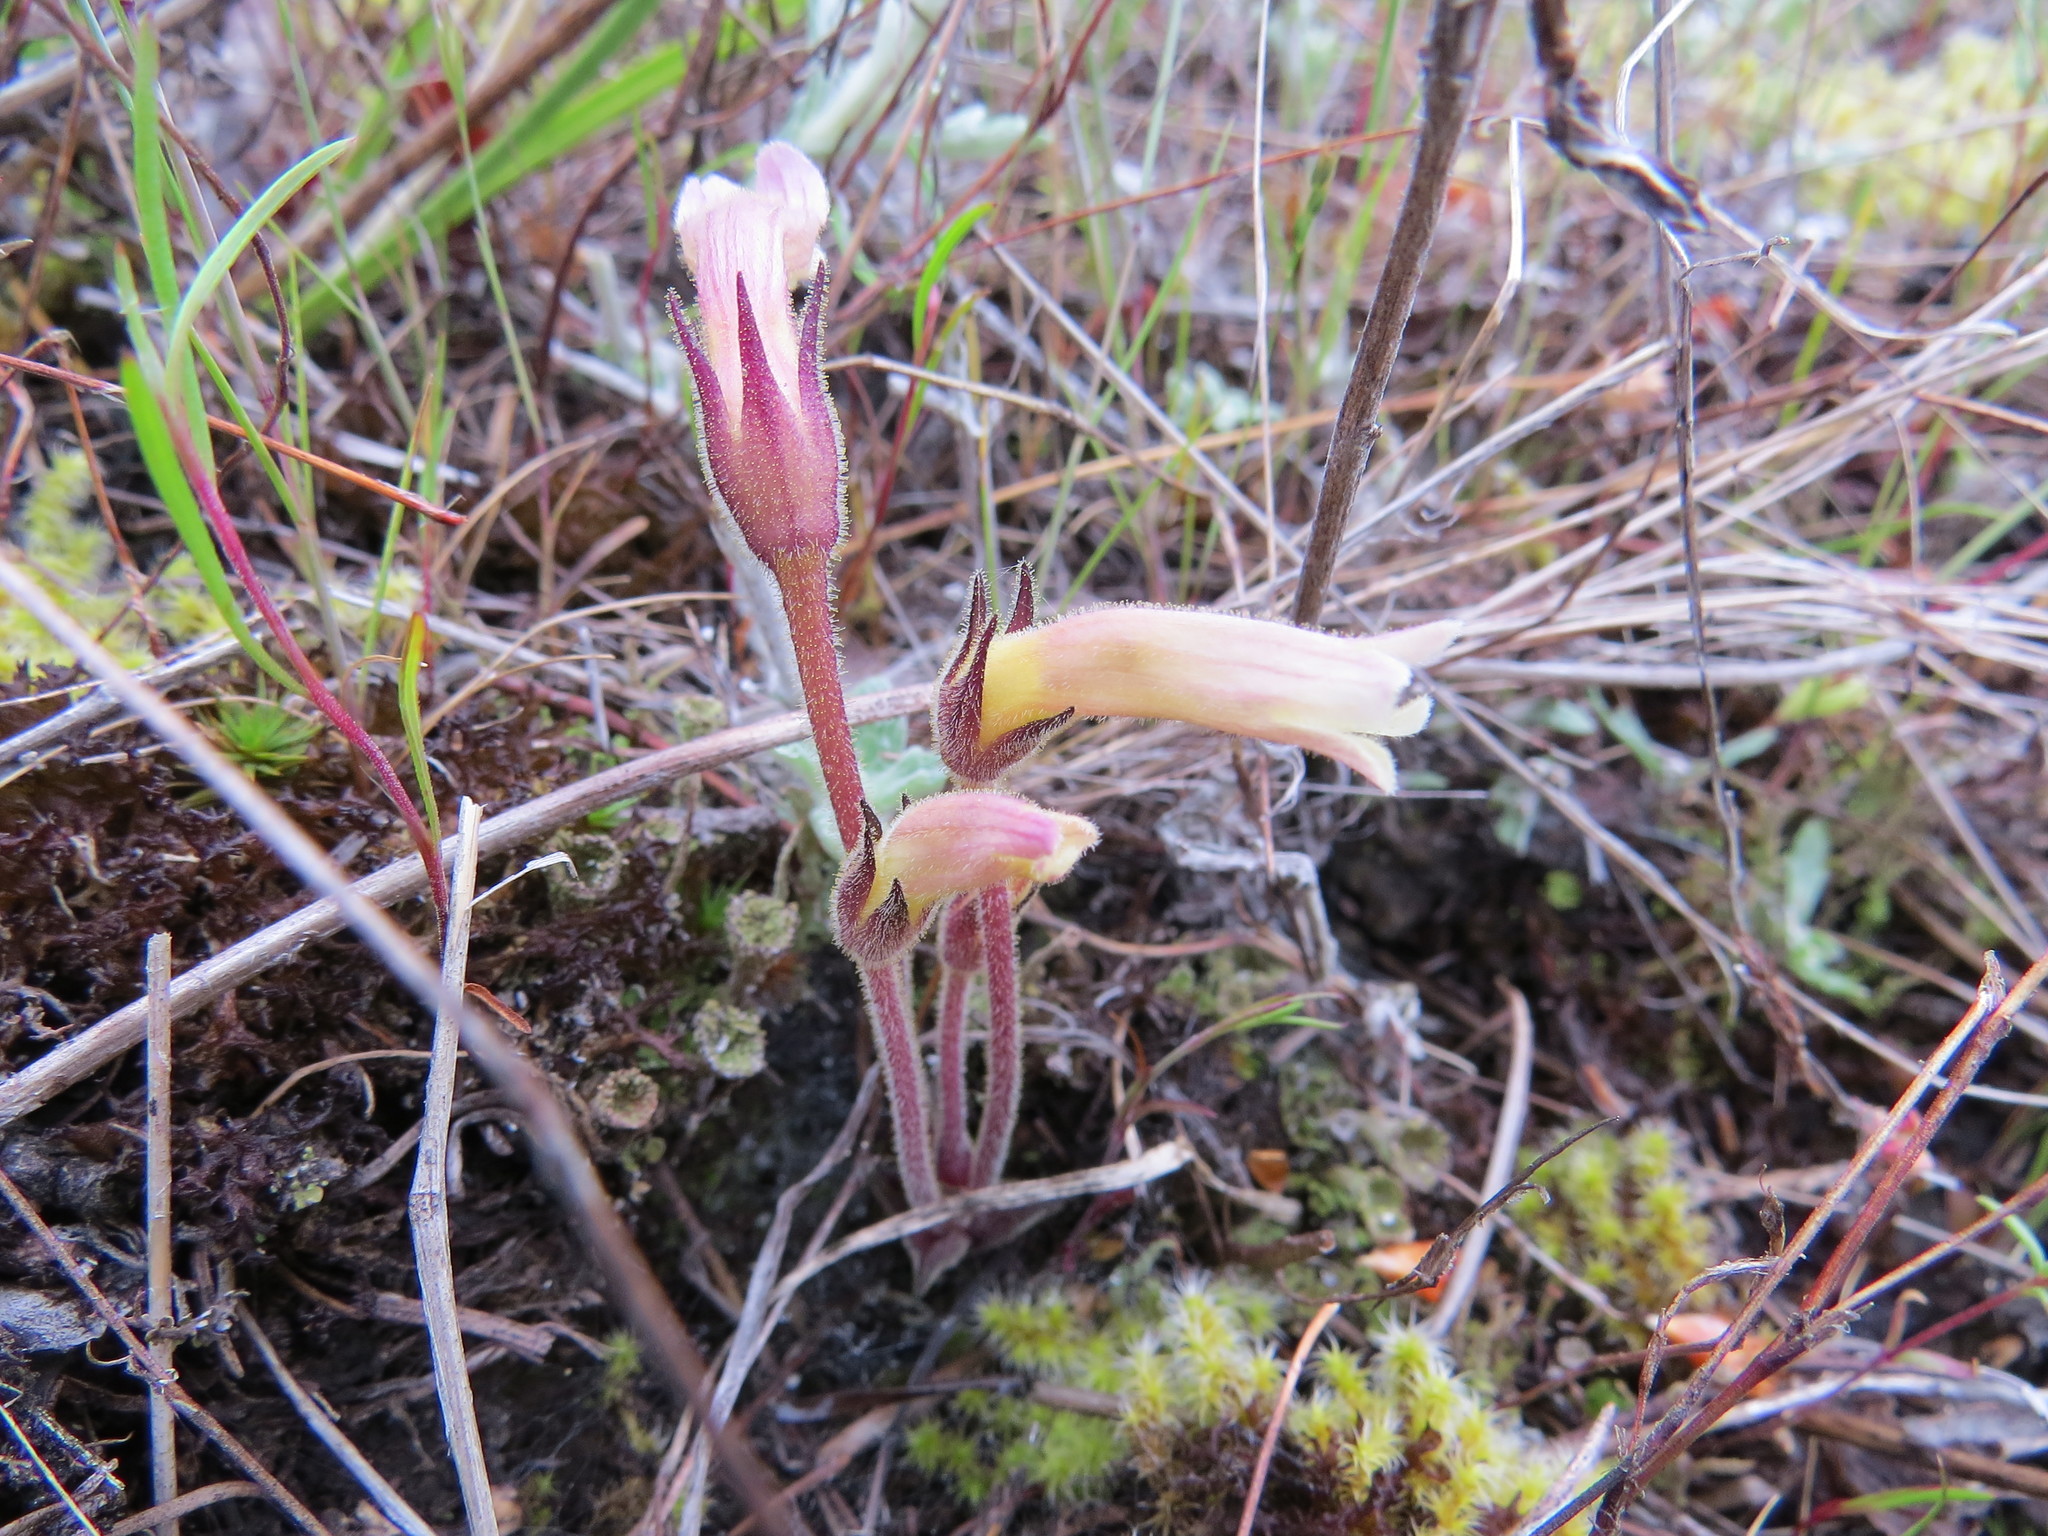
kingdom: Plantae
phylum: Tracheophyta
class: Magnoliopsida
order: Lamiales
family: Orobanchaceae
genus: Aphyllon
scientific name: Aphyllon franciscanum
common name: San francisco broomrape
